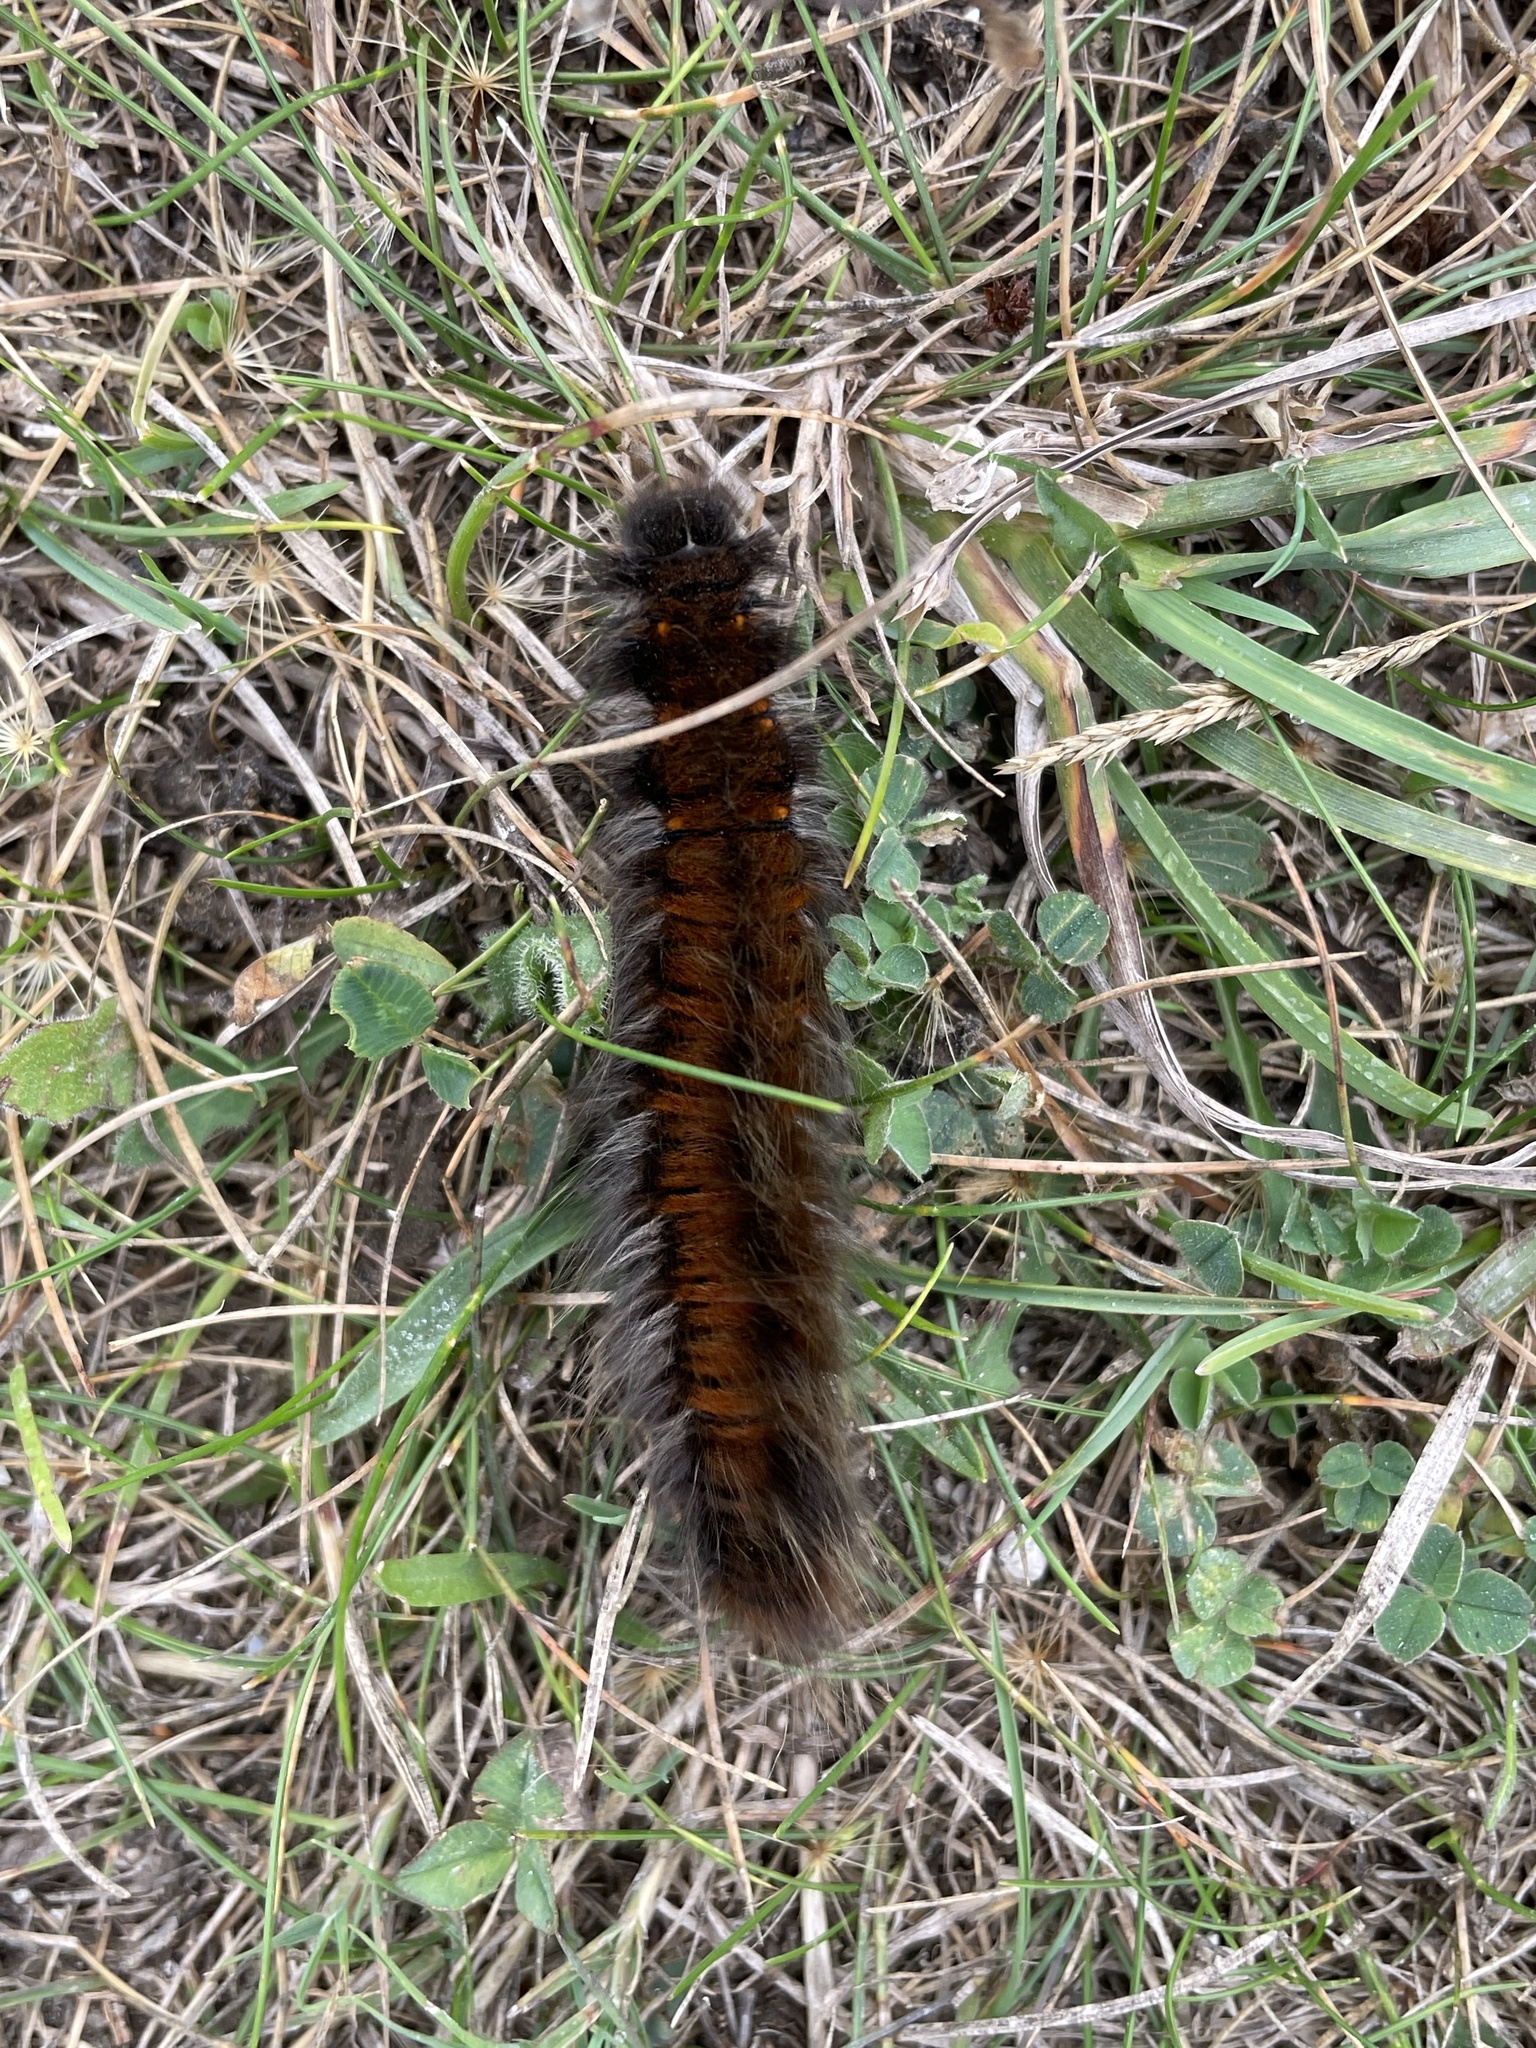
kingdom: Animalia
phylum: Arthropoda
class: Insecta
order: Lepidoptera
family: Lasiocampidae
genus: Macrothylacia
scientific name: Macrothylacia rubi
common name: Fox moth
